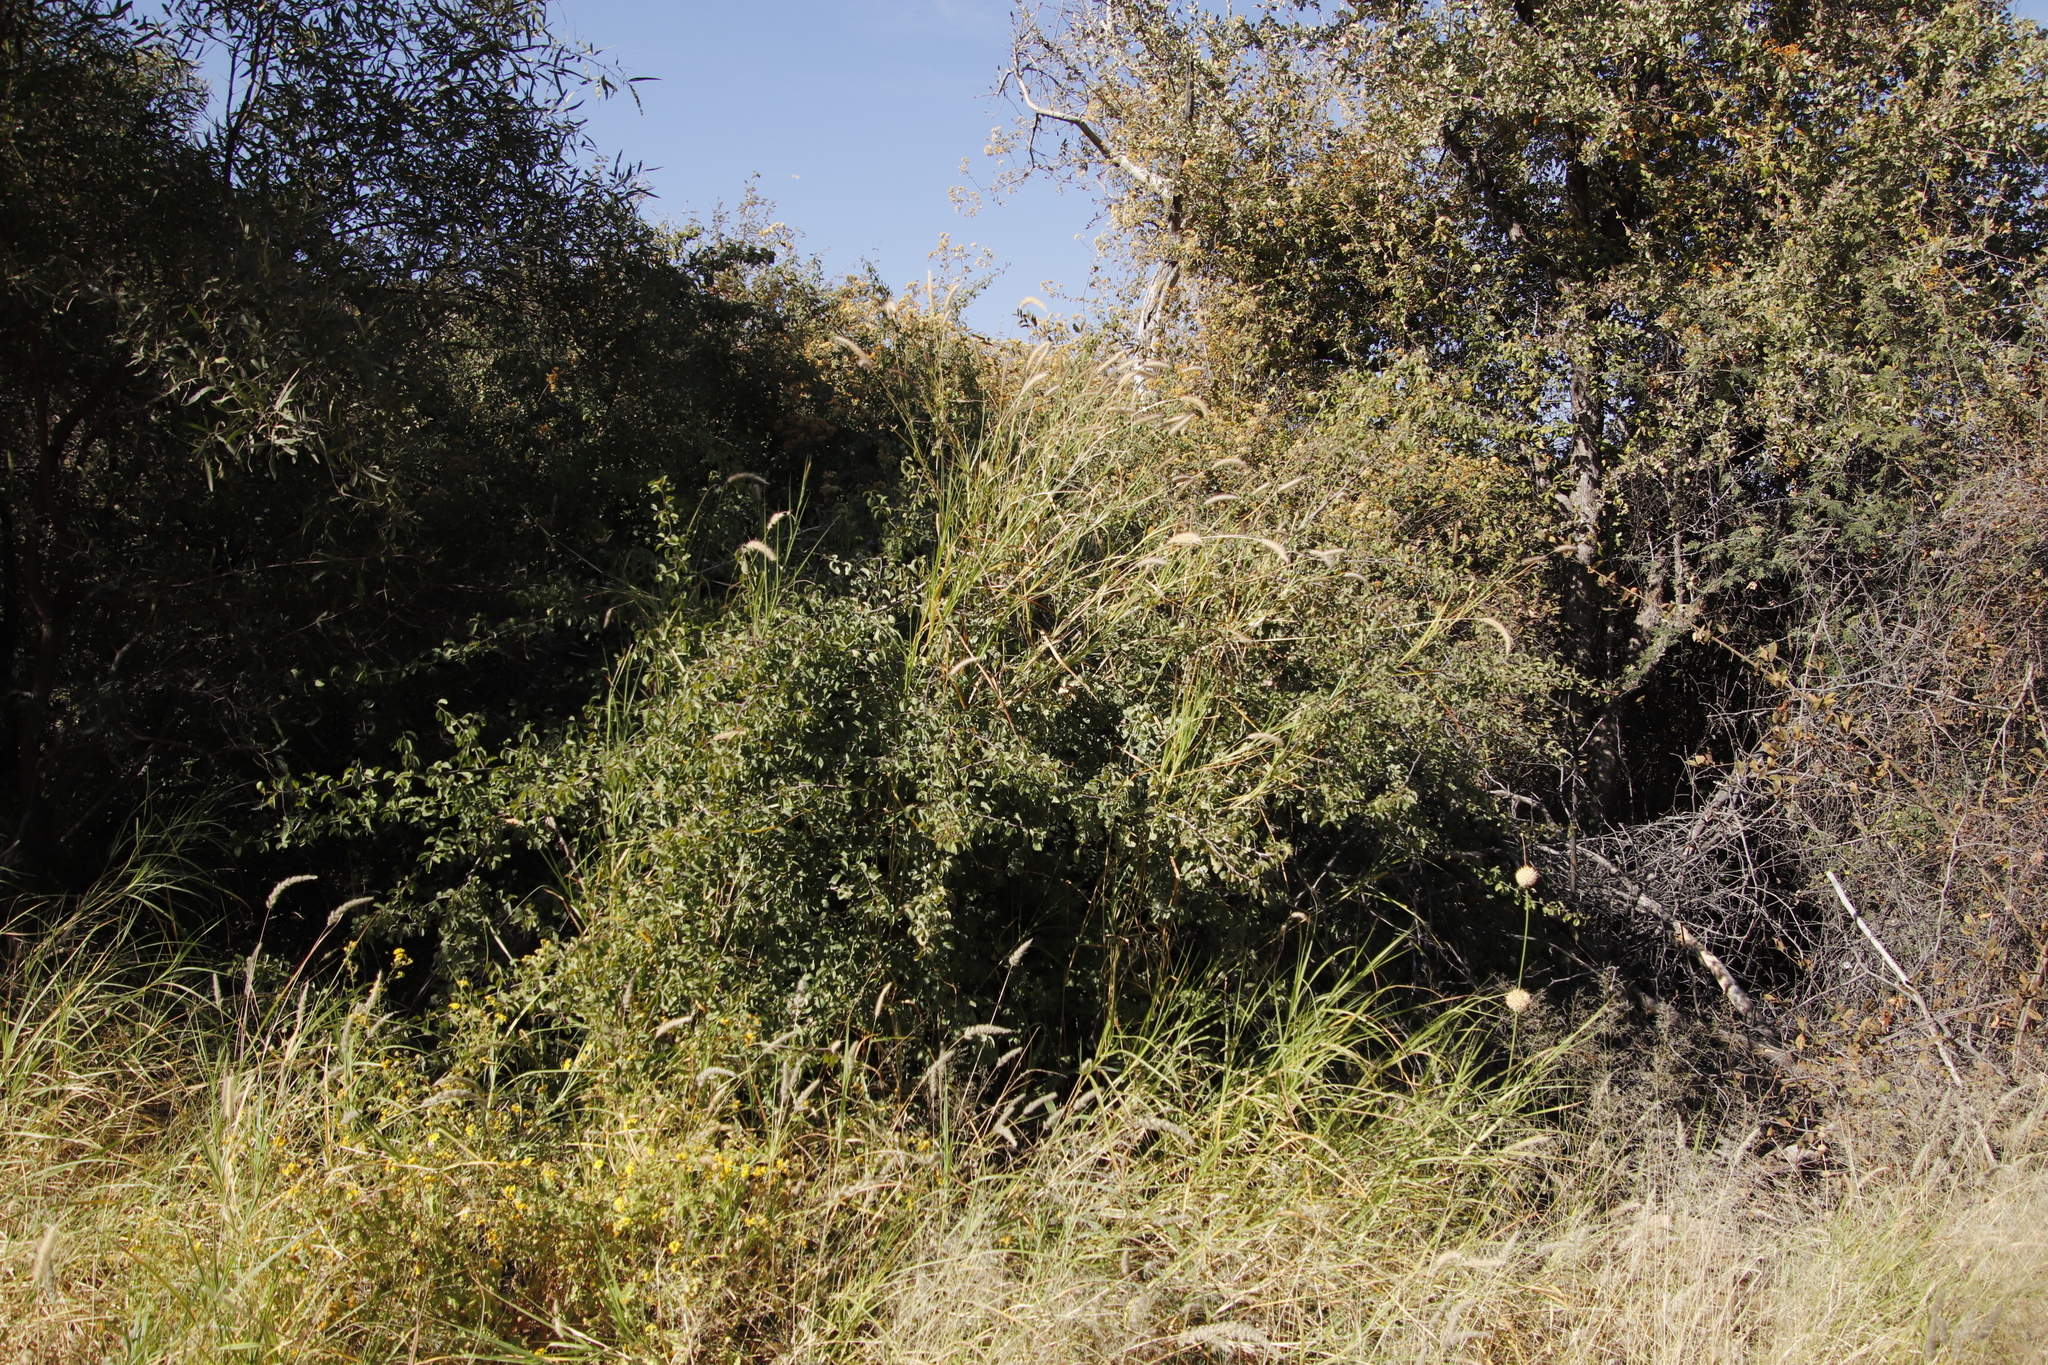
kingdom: Plantae
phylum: Tracheophyta
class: Liliopsida
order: Poales
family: Poaceae
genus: Cenchrus
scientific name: Cenchrus ciliaris
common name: Buffelgrass
